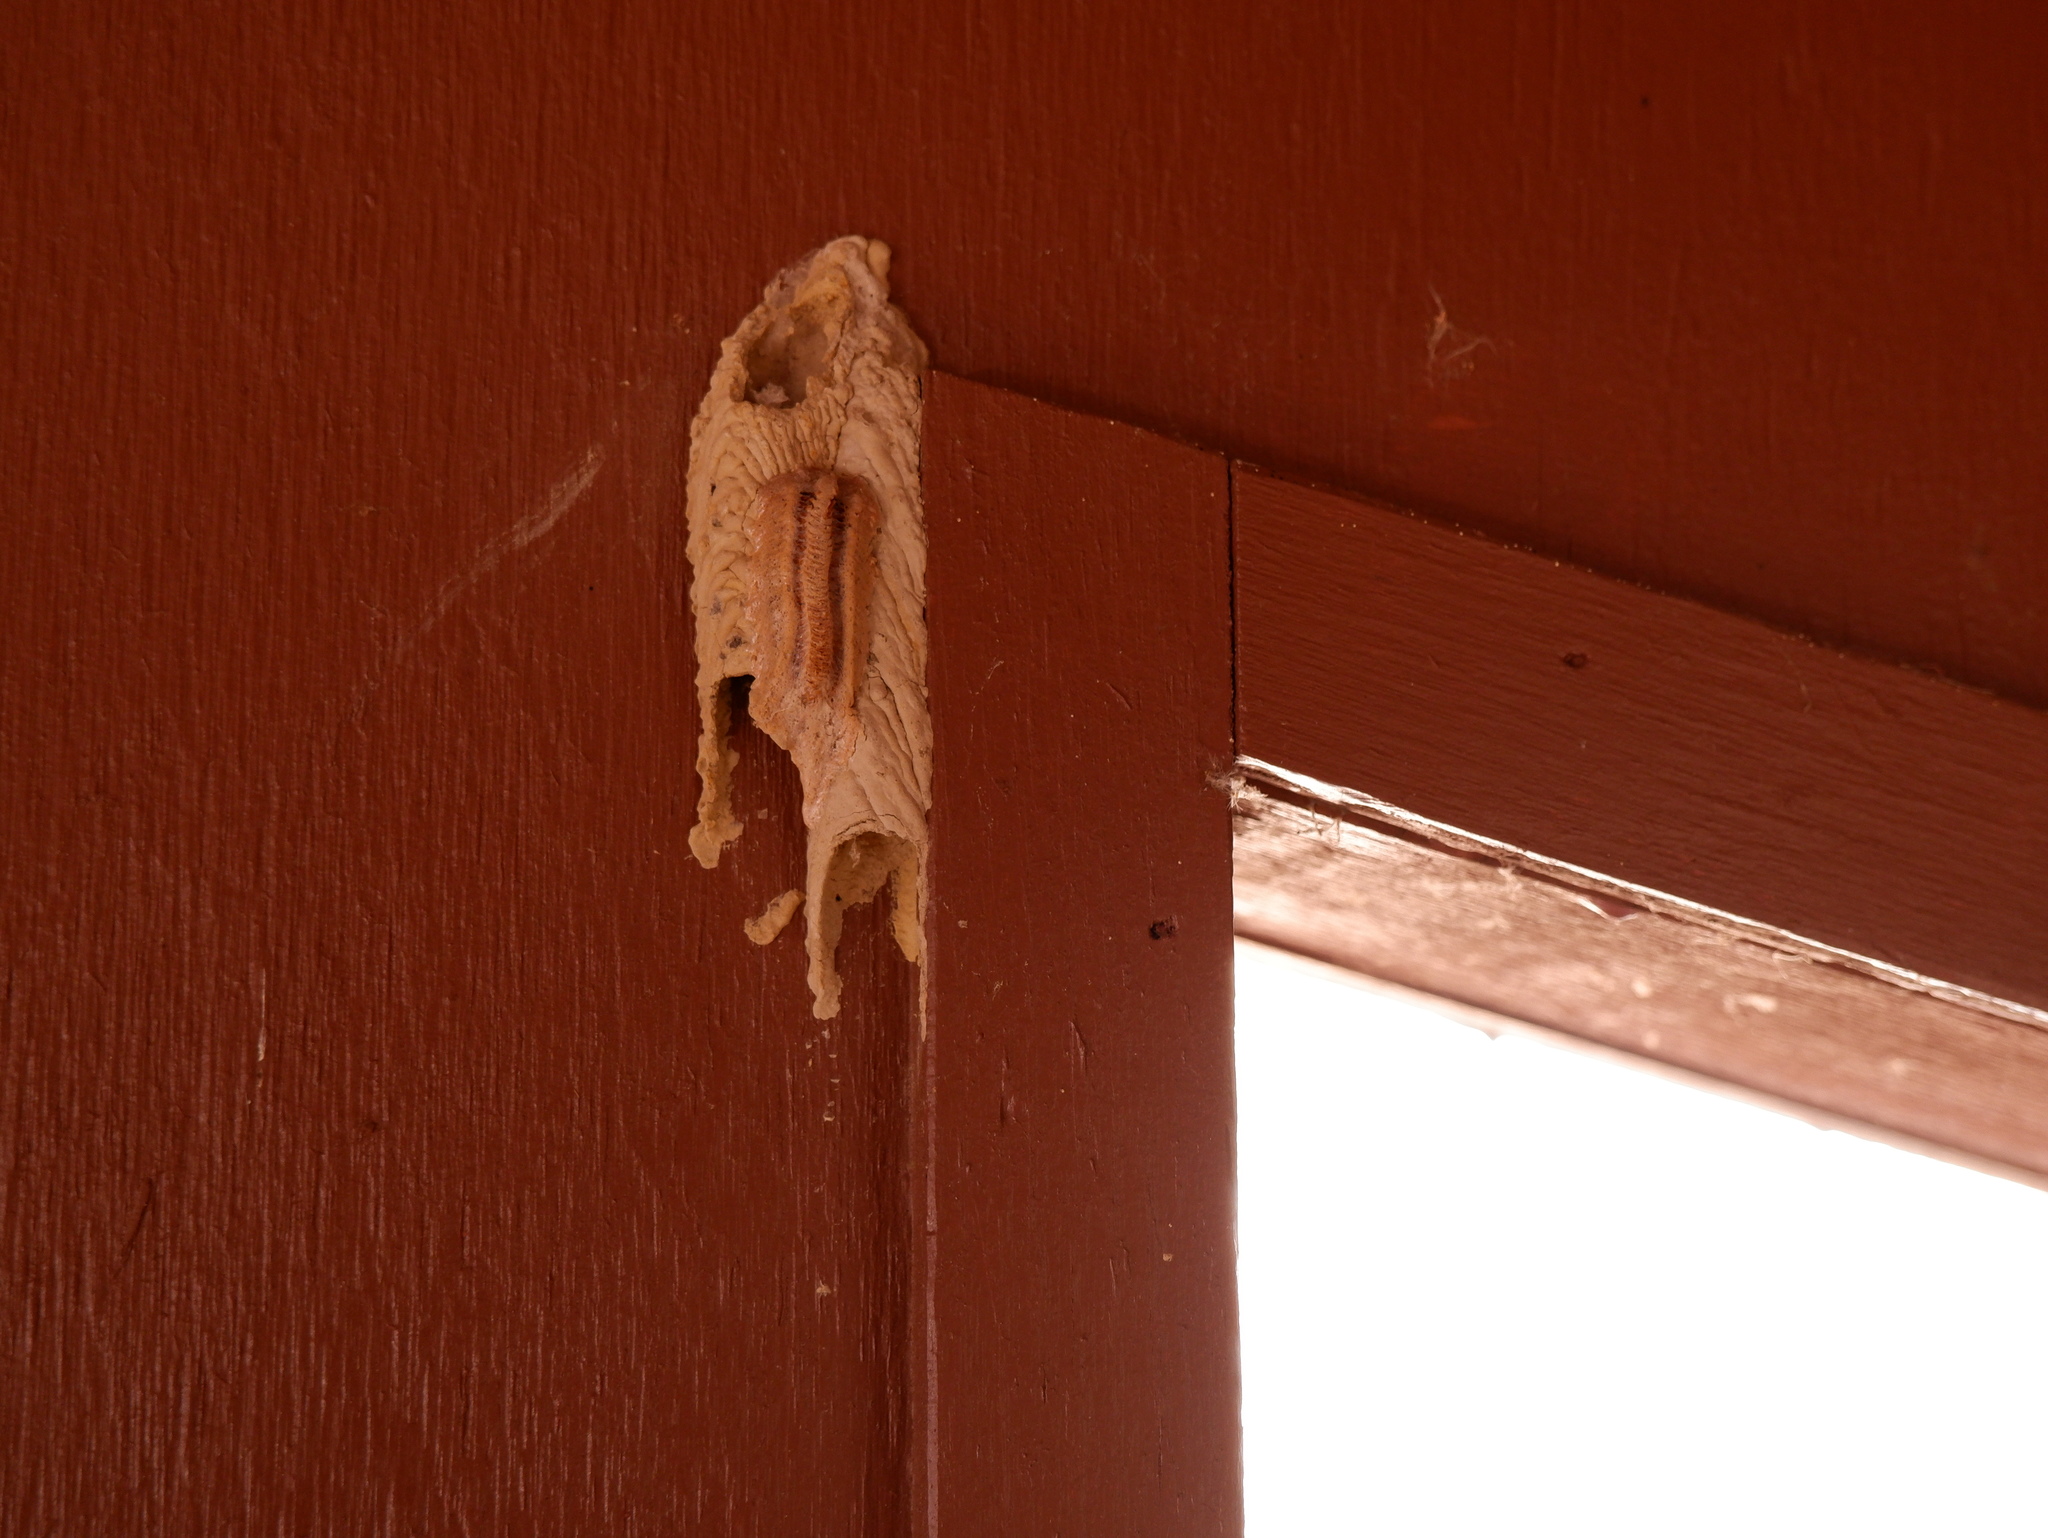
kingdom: Animalia
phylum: Arthropoda
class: Insecta
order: Hymenoptera
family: Crabronidae
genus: Trypoxylon
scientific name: Trypoxylon politum
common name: Organ-pipe mud-dauber wasp
